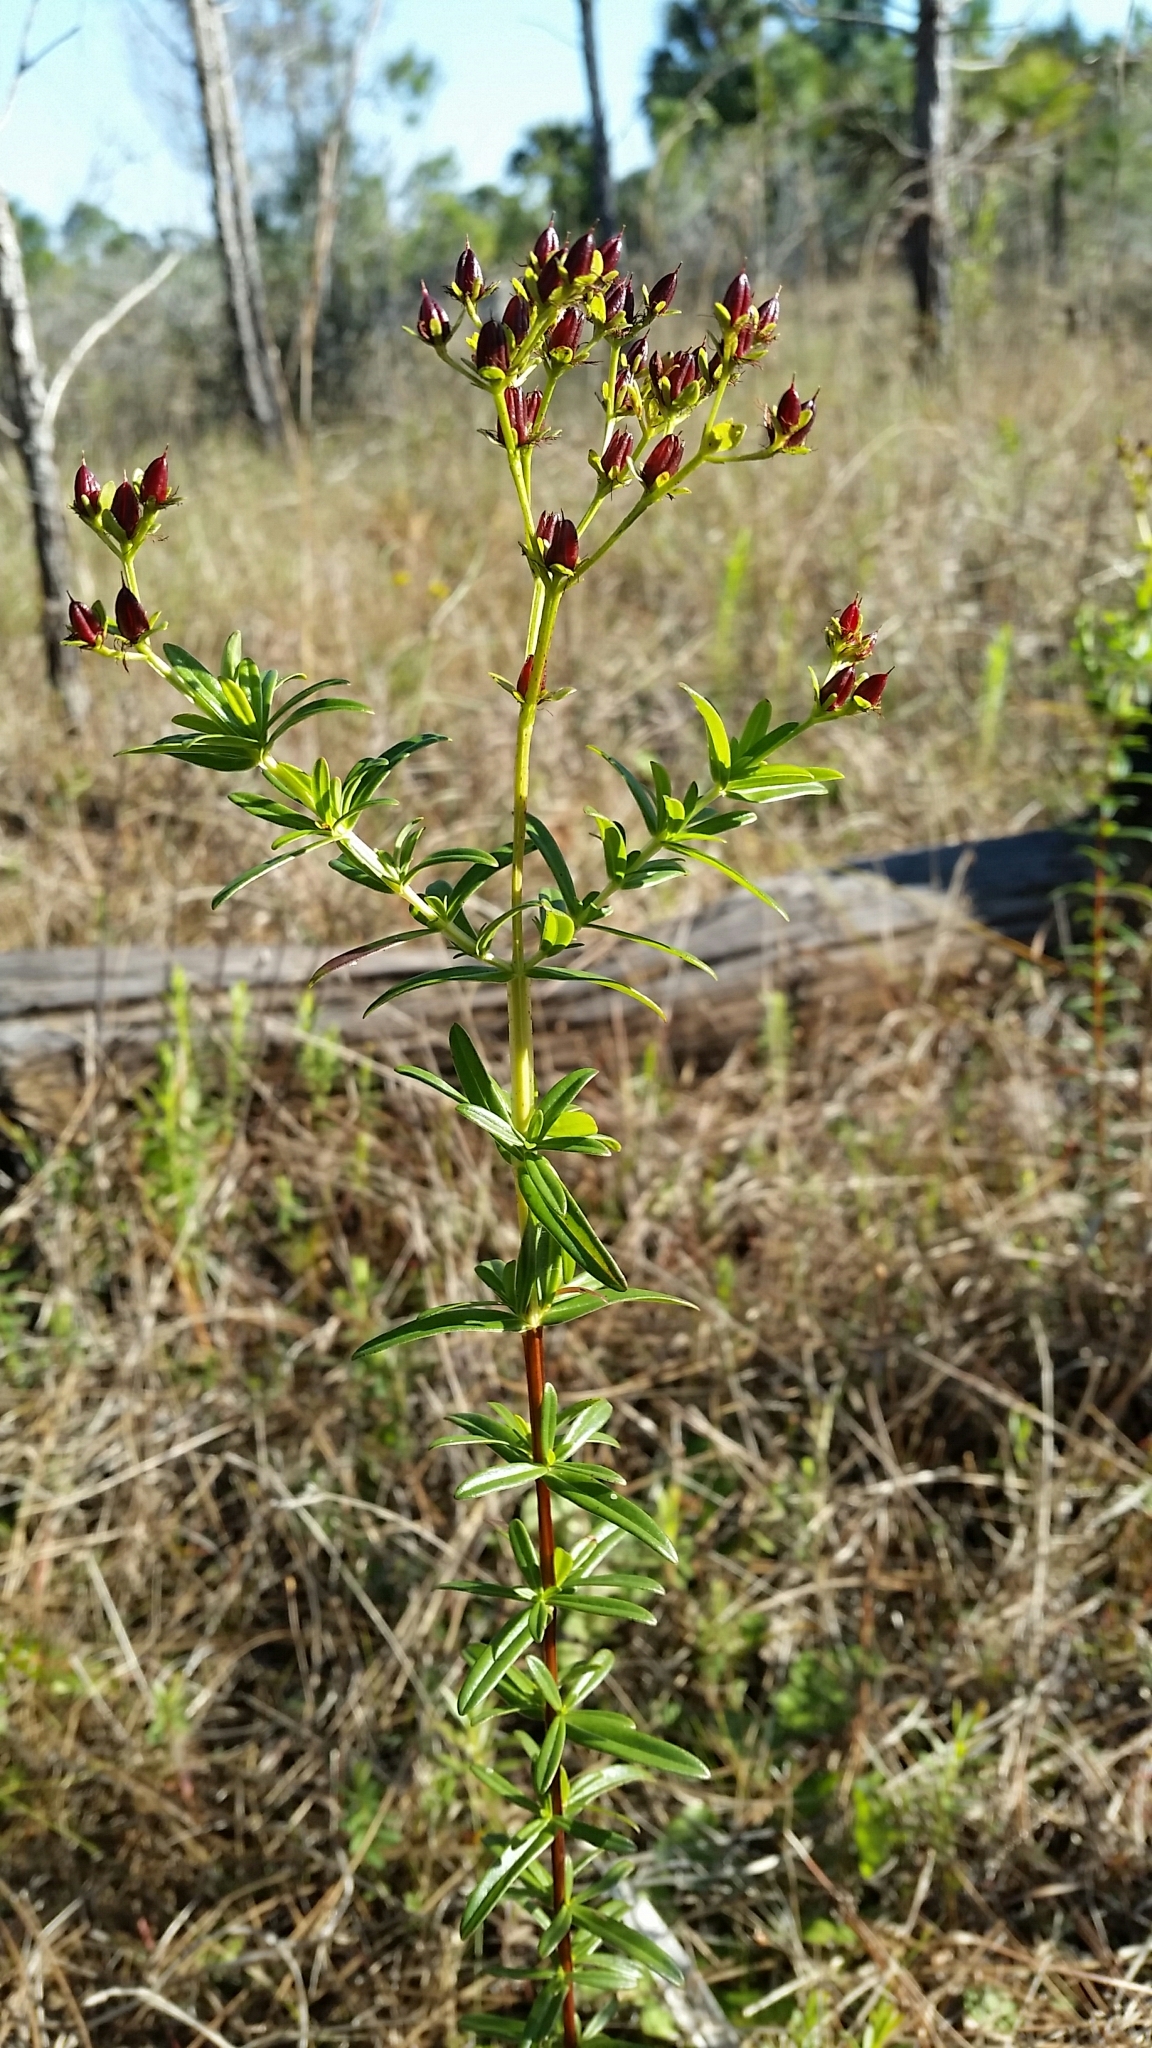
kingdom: Plantae
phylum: Tracheophyta
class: Magnoliopsida
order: Malpighiales
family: Hypericaceae
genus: Hypericum
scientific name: Hypericum cistifolium
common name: Round-pod st. john's-wort
